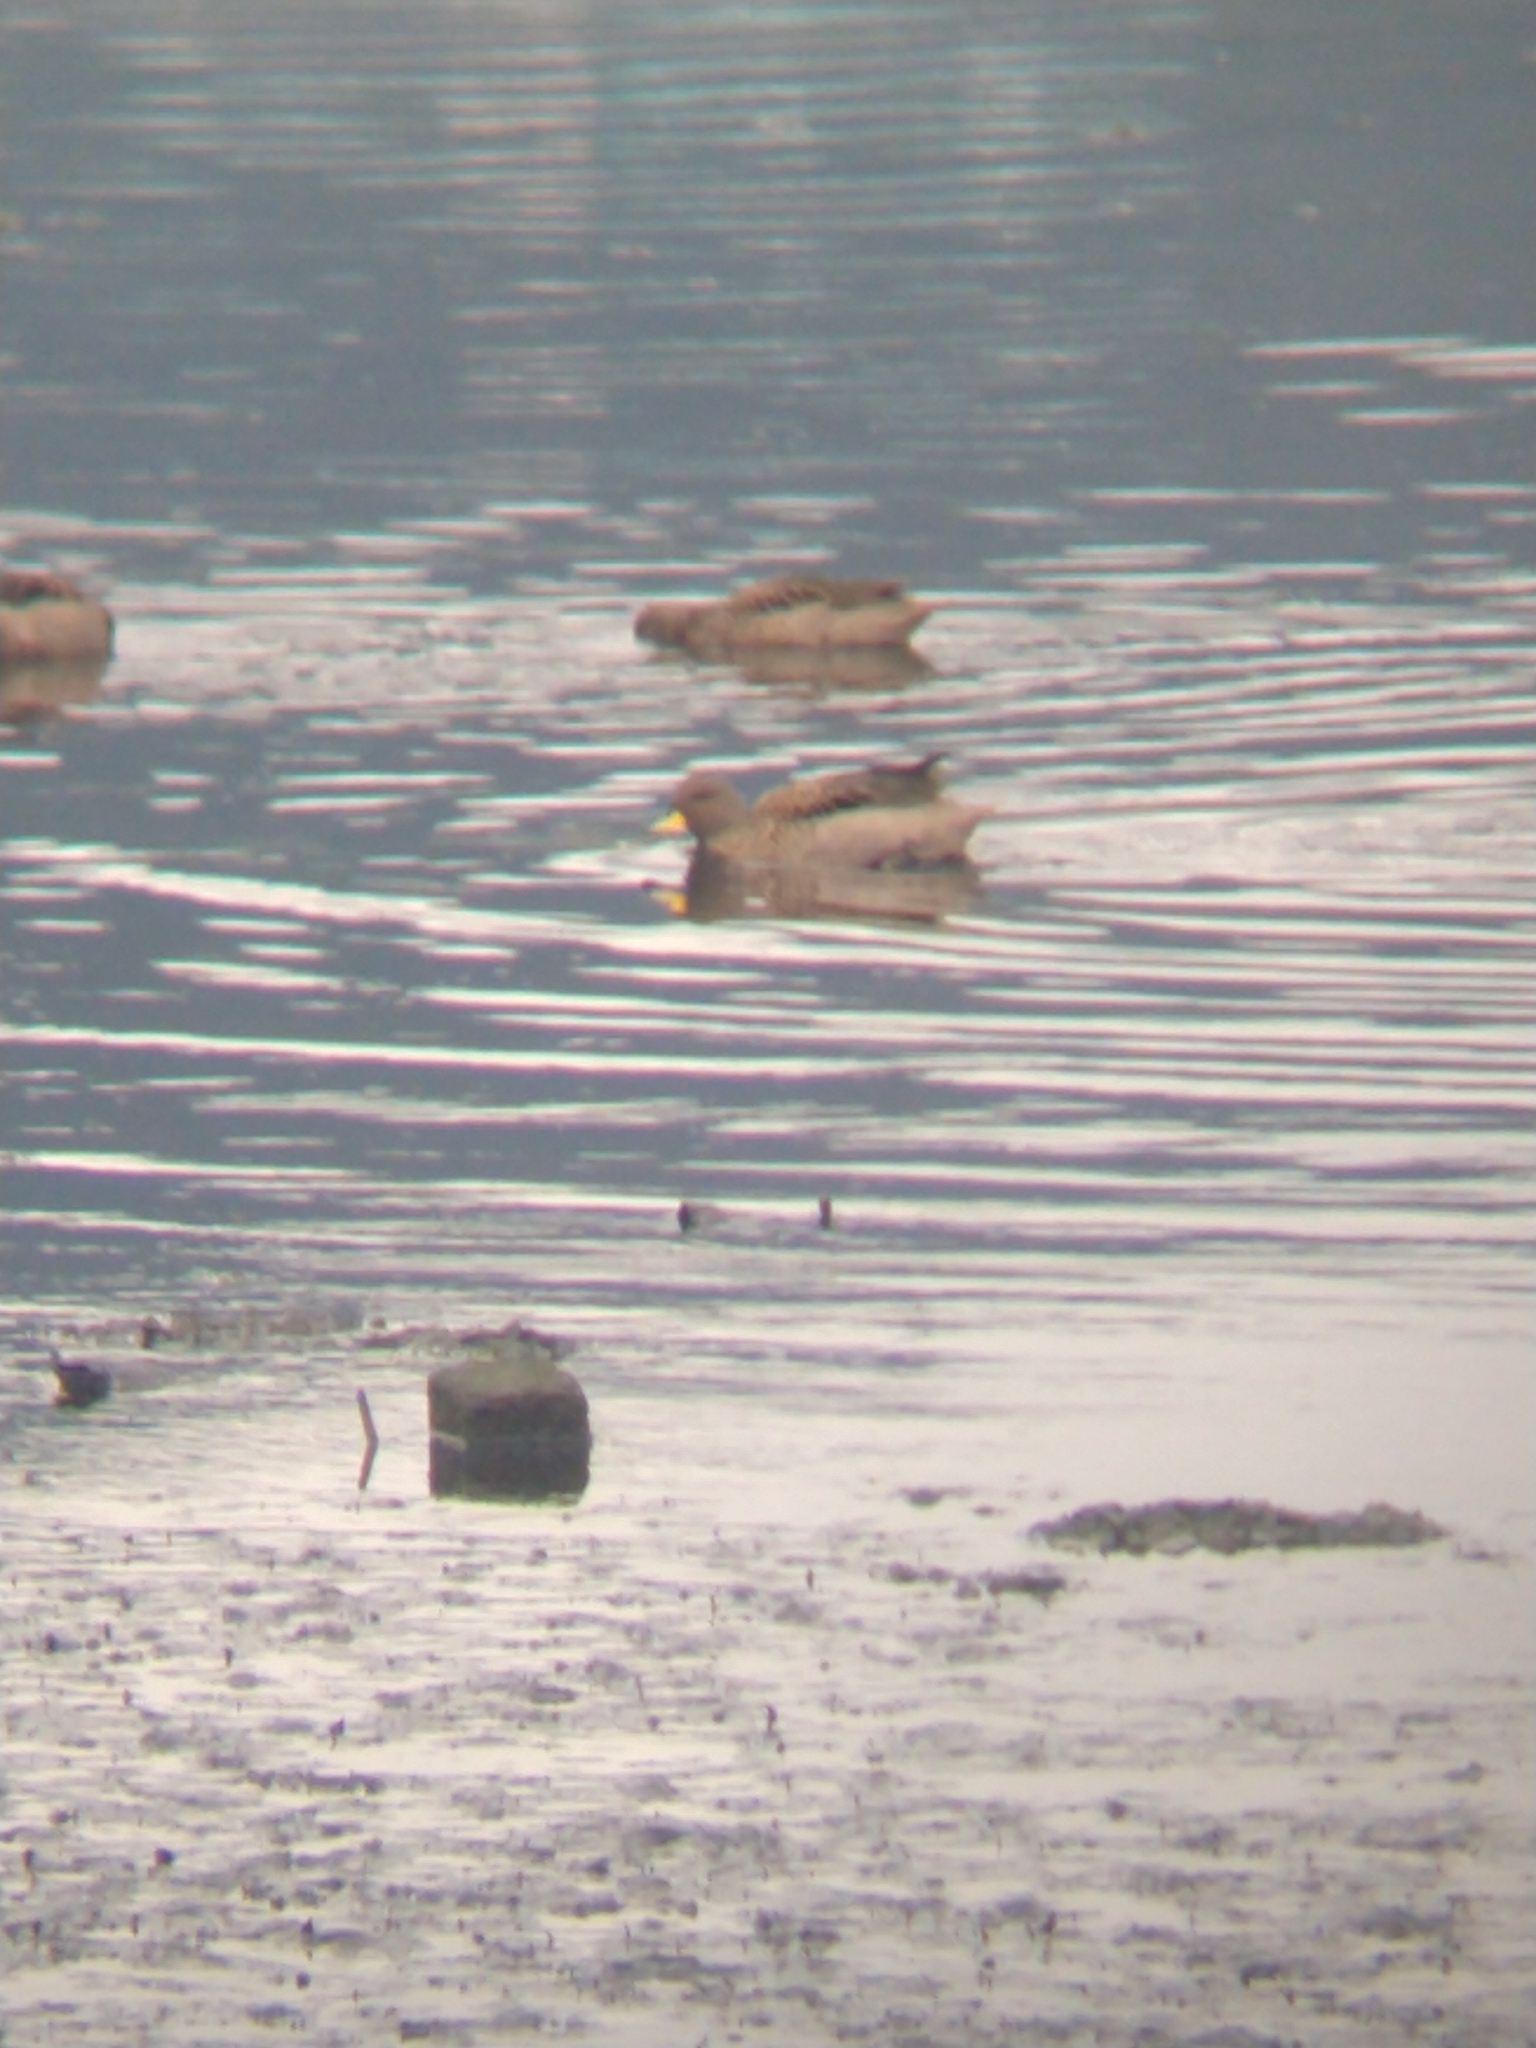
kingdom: Animalia
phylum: Chordata
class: Aves
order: Anseriformes
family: Anatidae
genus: Anas
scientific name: Anas flavirostris
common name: Yellow-billed teal
